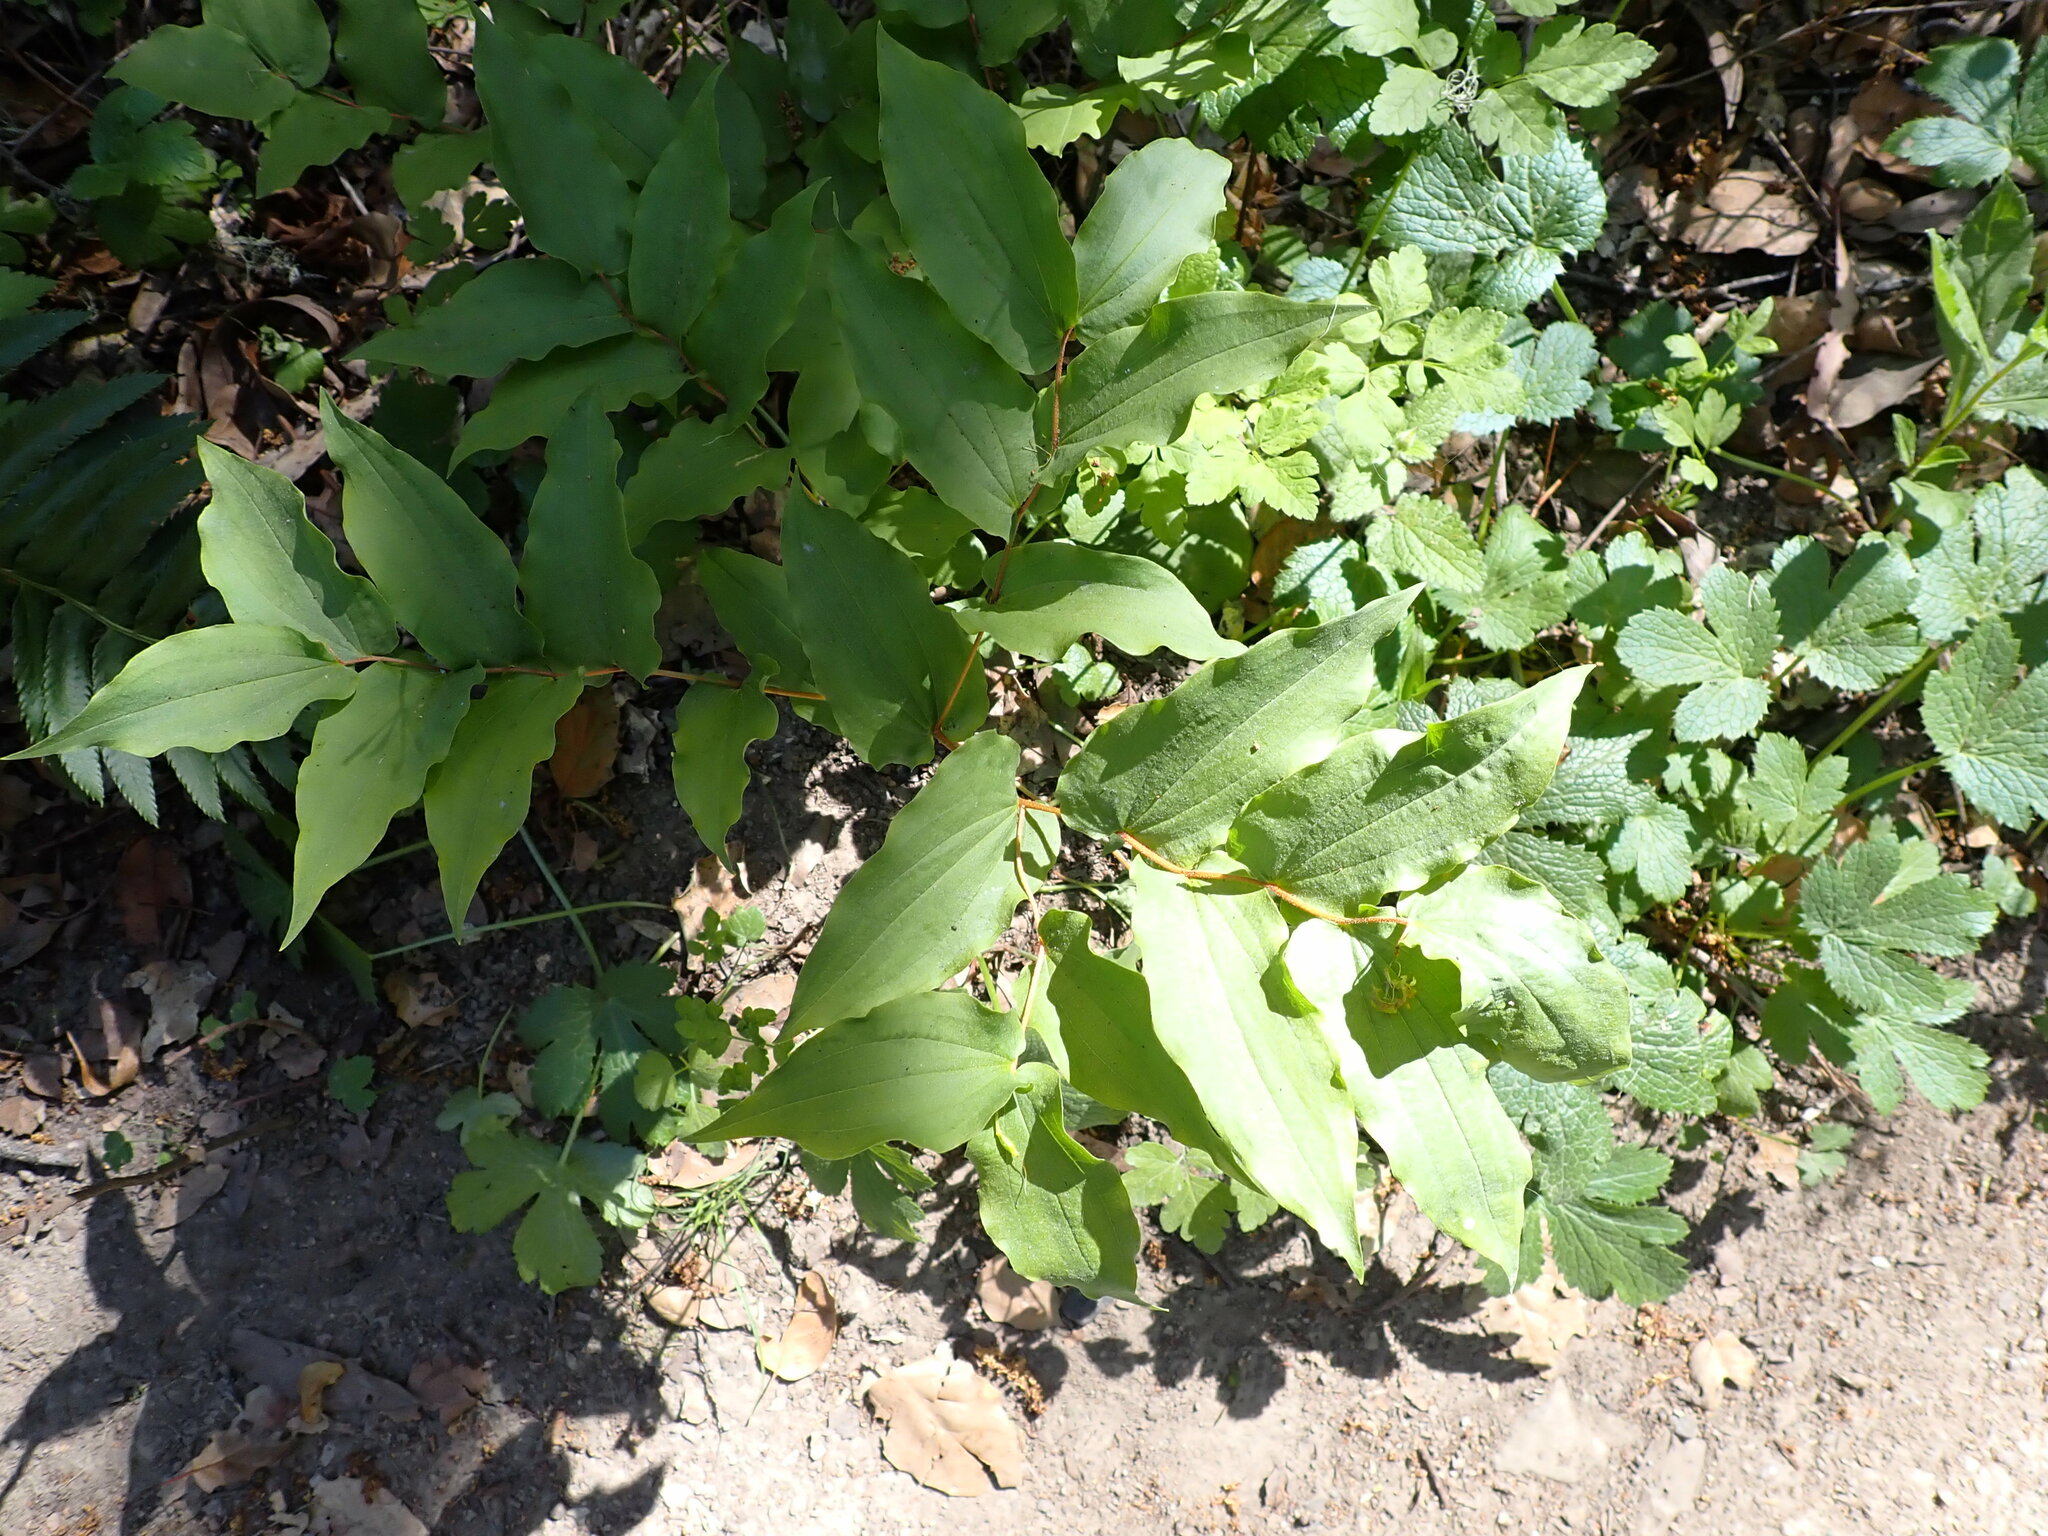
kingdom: Plantae
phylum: Tracheophyta
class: Liliopsida
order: Liliales
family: Liliaceae
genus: Prosartes
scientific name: Prosartes hookeri
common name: Fairy-bells
